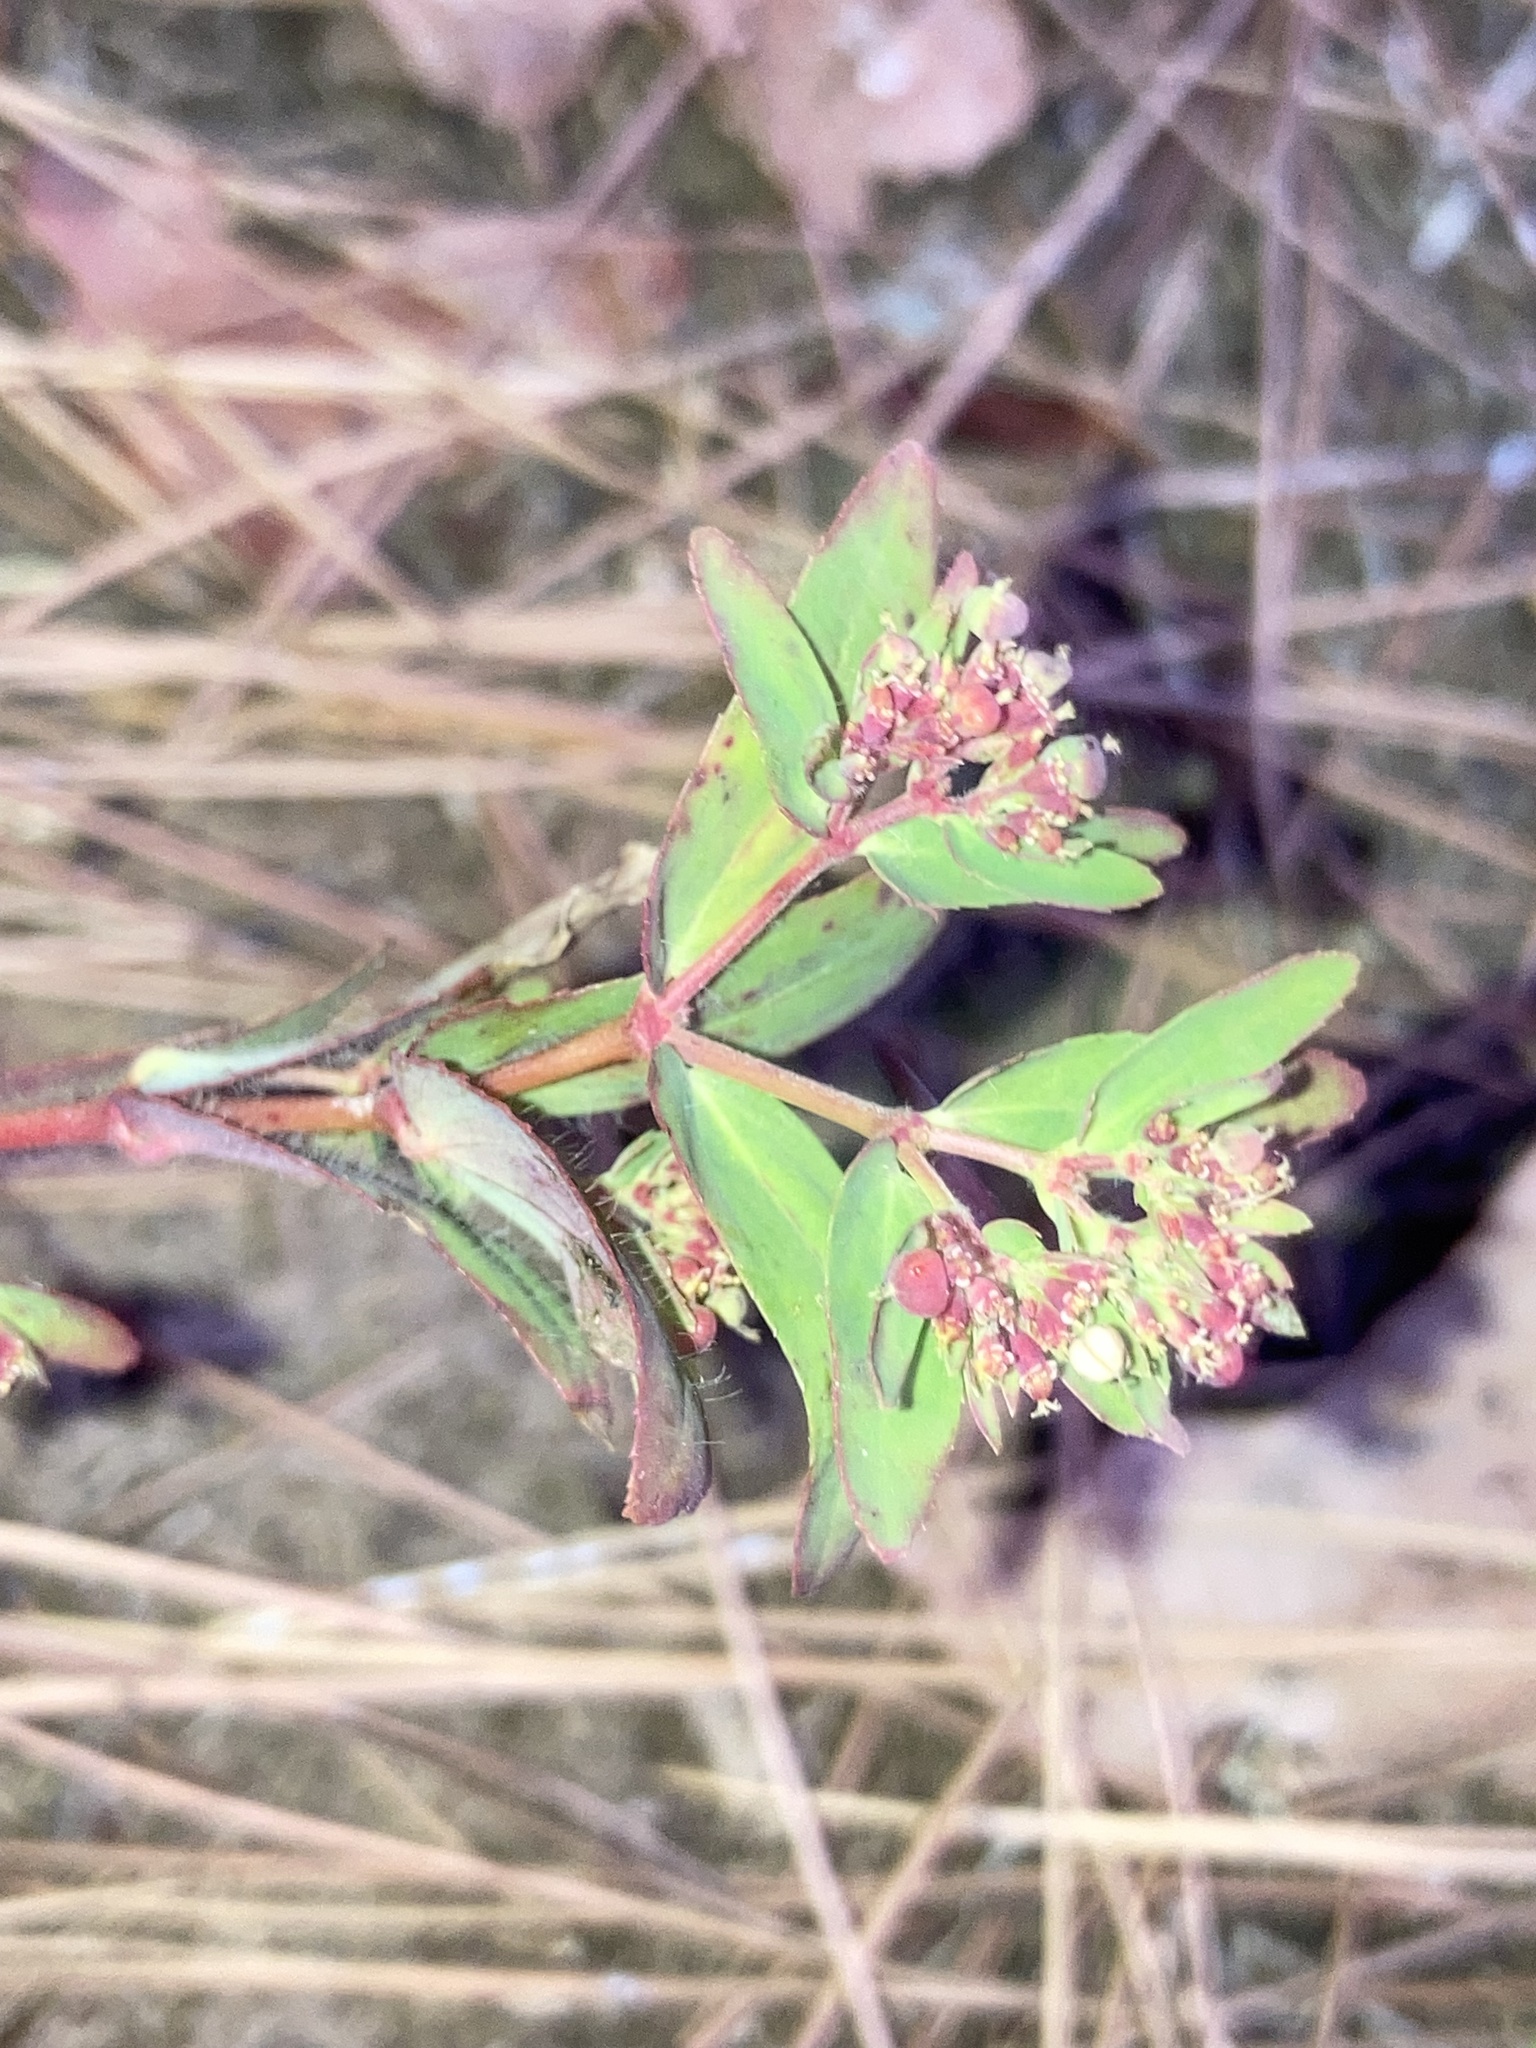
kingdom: Plantae
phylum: Tracheophyta
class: Magnoliopsida
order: Malpighiales
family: Euphorbiaceae
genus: Euphorbia
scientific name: Euphorbia nutans
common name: Eyebane
